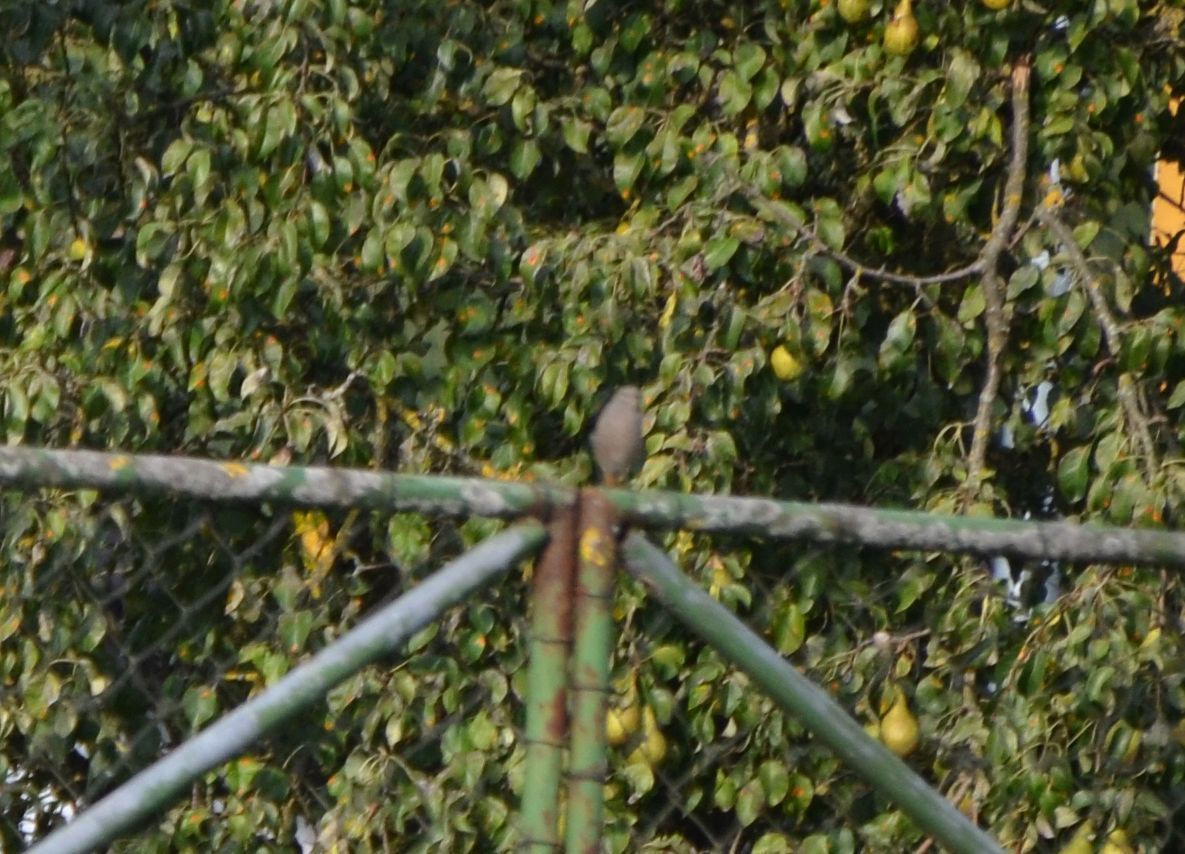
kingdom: Animalia
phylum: Chordata
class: Aves
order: Passeriformes
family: Muscicapidae
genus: Phoenicurus
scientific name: Phoenicurus ochruros
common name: Black redstart
